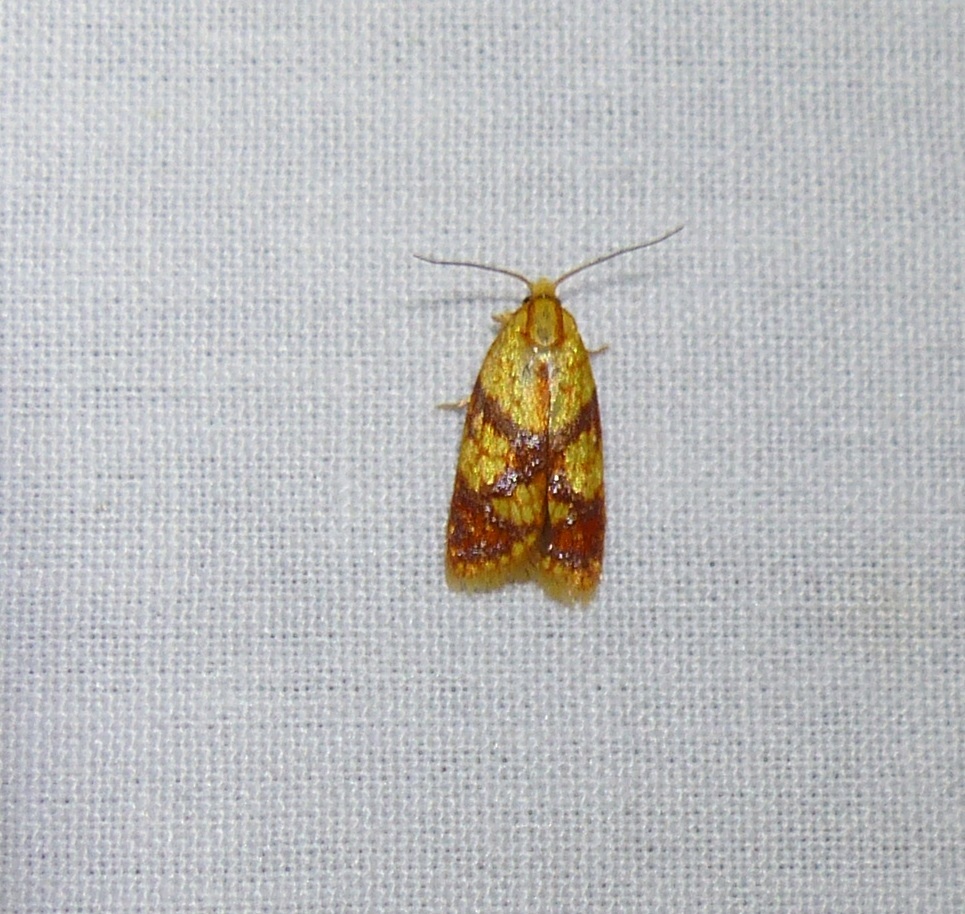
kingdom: Animalia
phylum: Arthropoda
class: Insecta
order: Lepidoptera
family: Tortricidae
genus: Sparganothis
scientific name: Sparganothis sulfureana
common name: Sparganothis fruitworm moth
